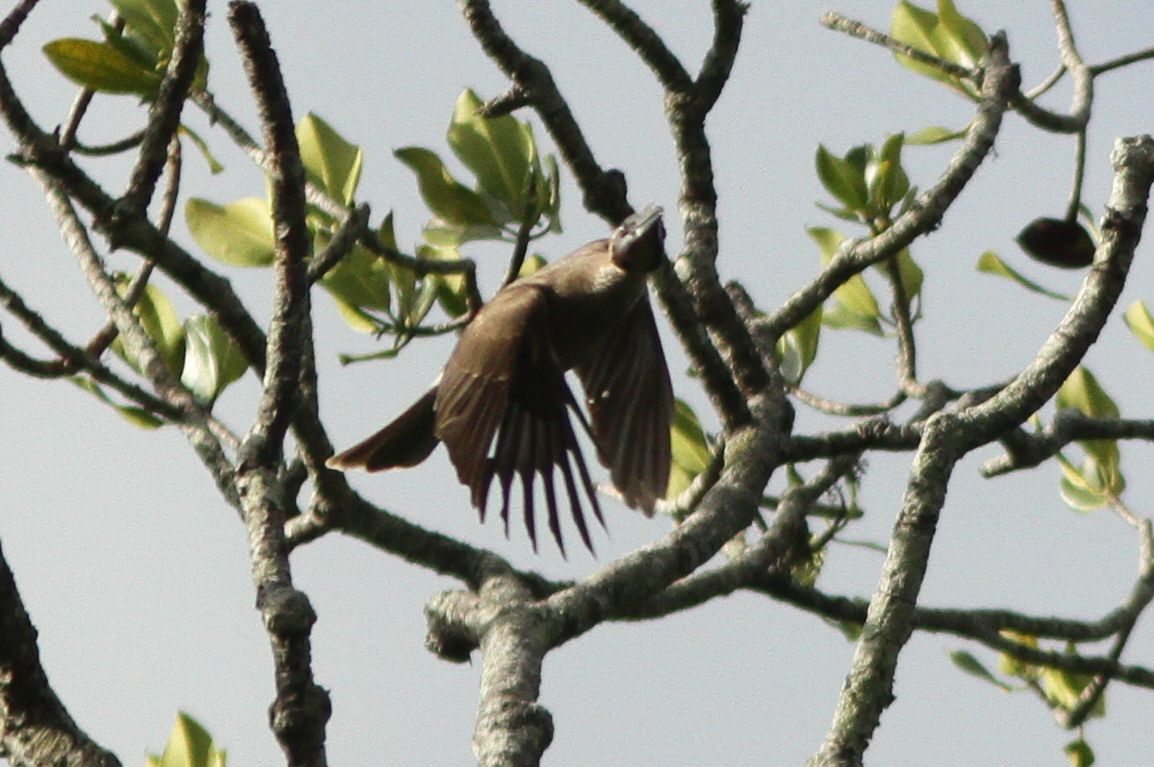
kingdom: Animalia
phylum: Chordata
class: Aves
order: Passeriformes
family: Meliphagidae
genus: Philemon
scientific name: Philemon buceroides
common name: Helmeted friarbird
